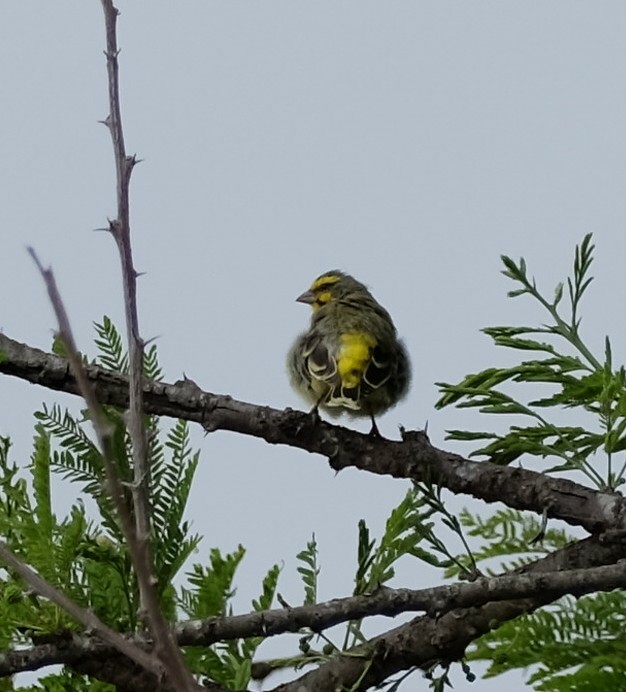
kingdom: Animalia
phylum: Chordata
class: Aves
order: Passeriformes
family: Fringillidae
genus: Crithagra
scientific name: Crithagra mozambica
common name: Yellow-fronted canary
